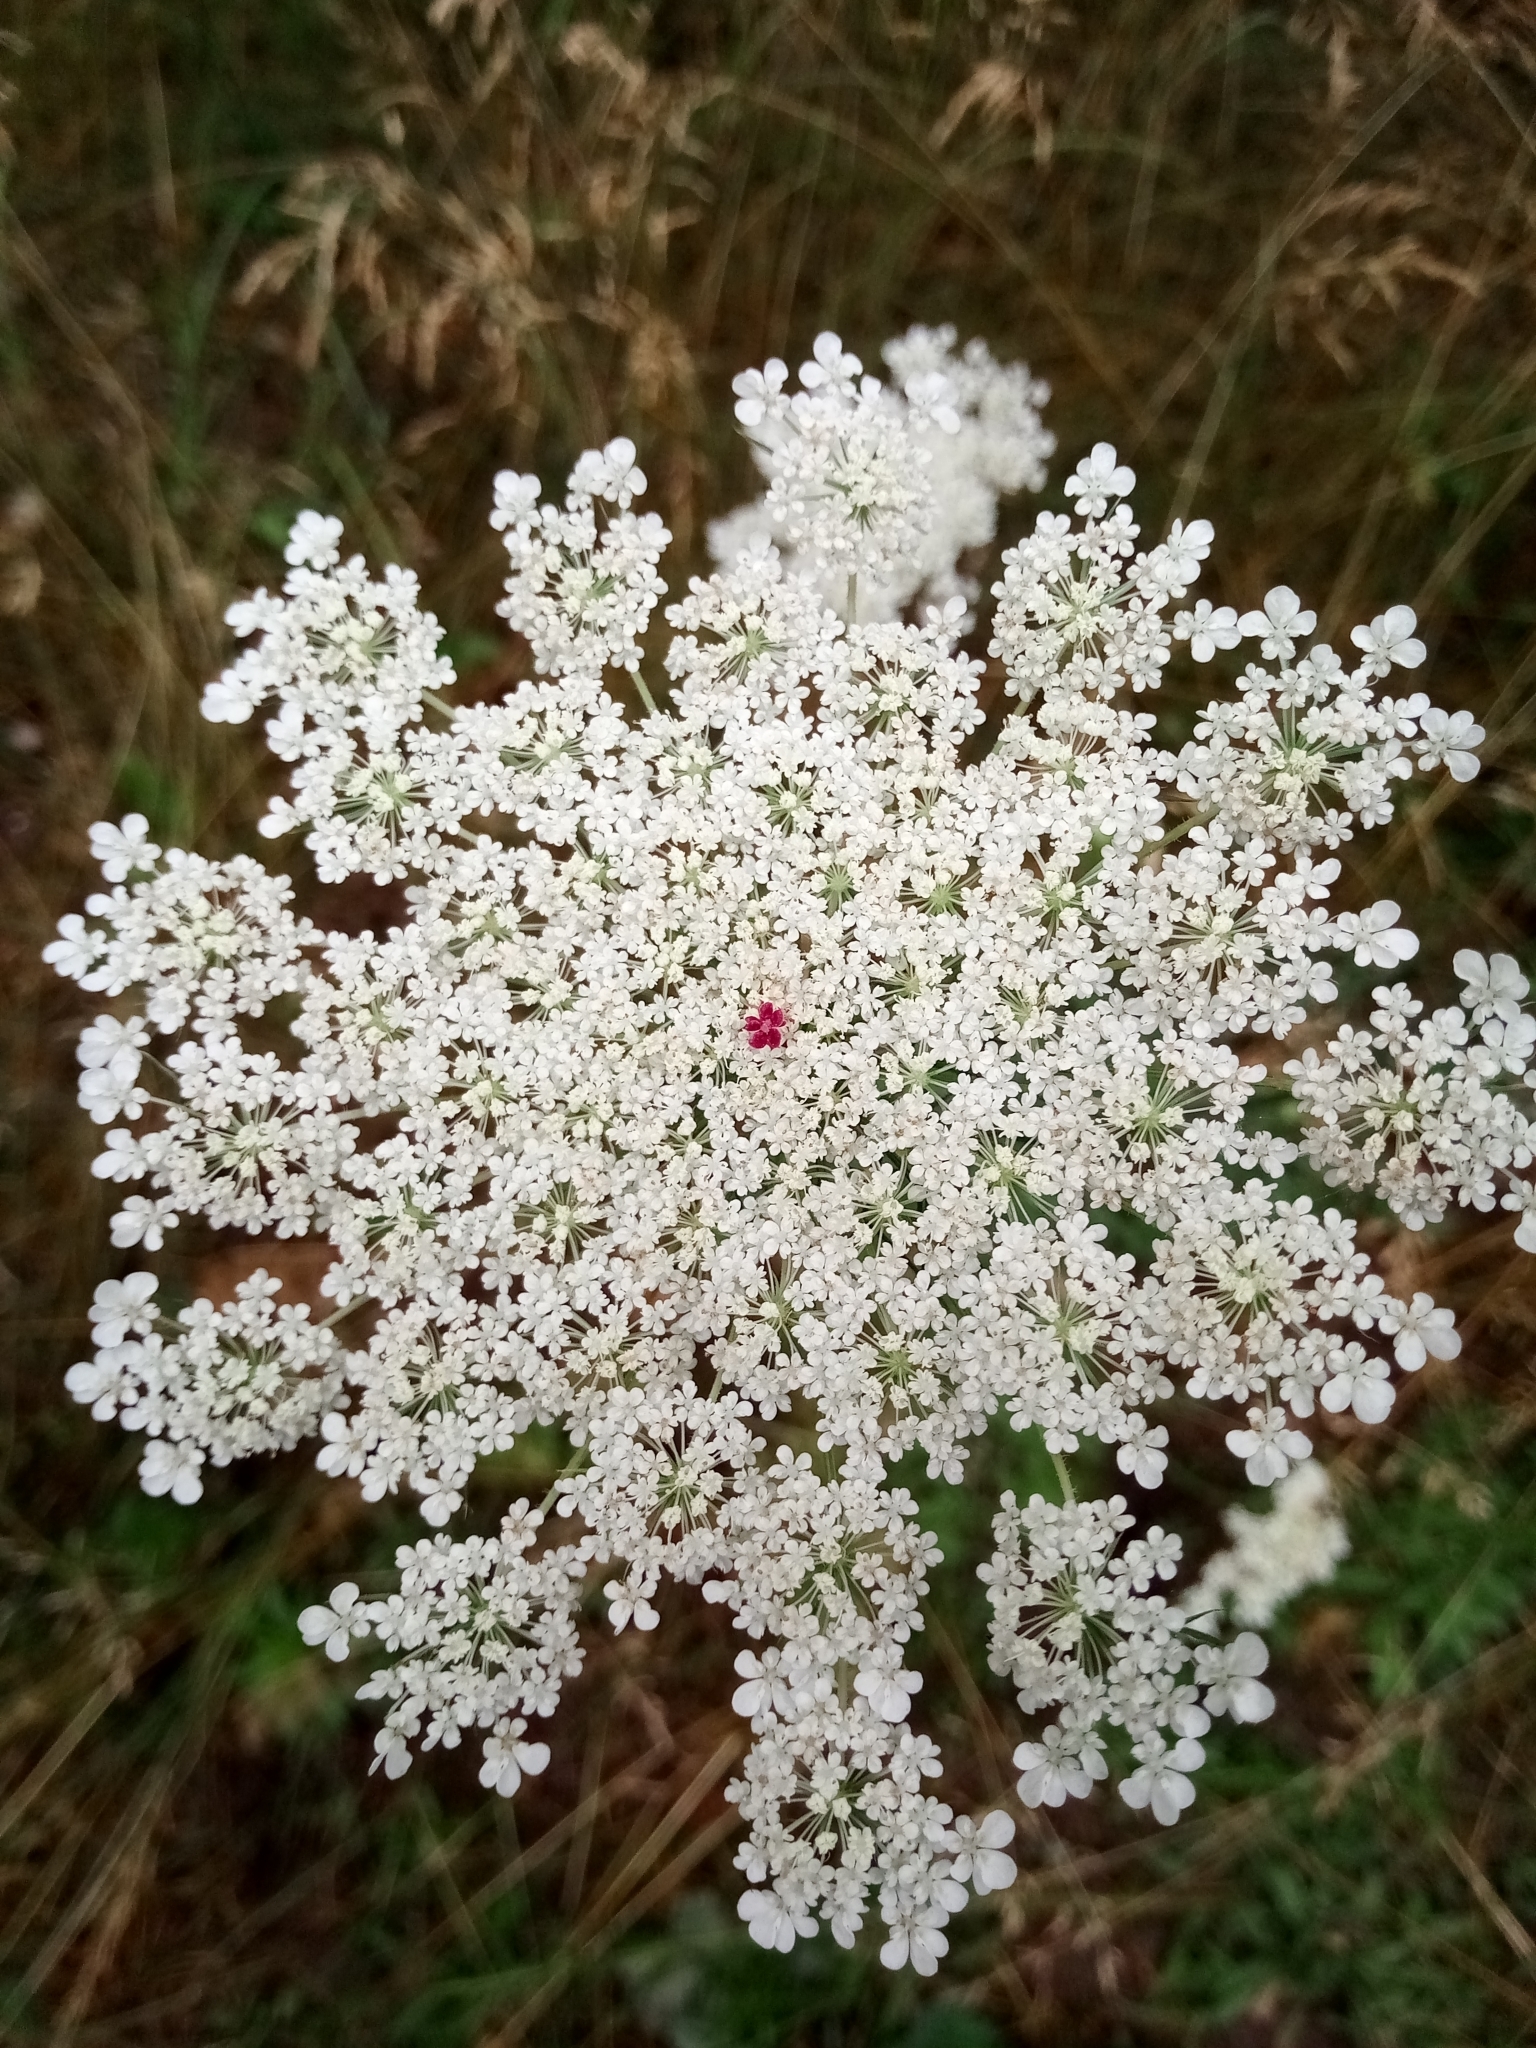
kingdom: Plantae
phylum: Tracheophyta
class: Magnoliopsida
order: Apiales
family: Apiaceae
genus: Daucus
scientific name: Daucus carota
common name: Wild carrot
